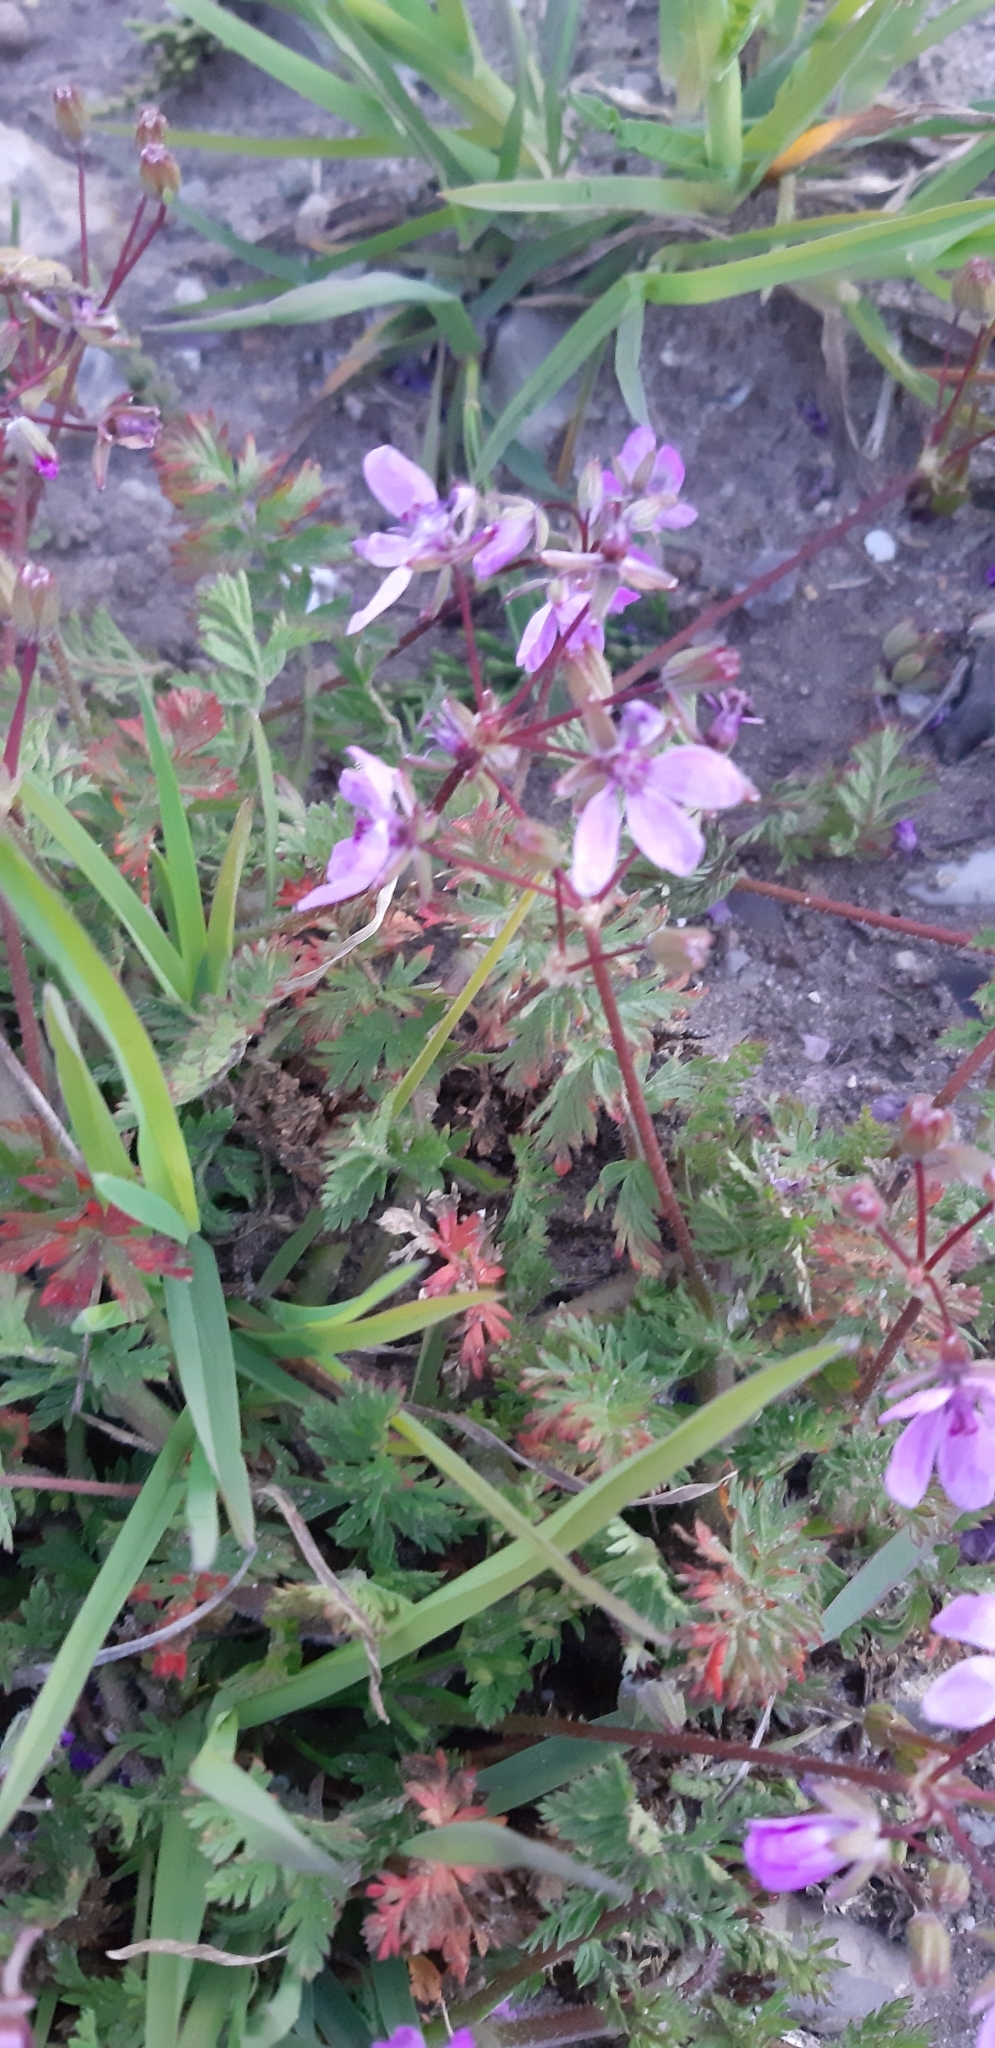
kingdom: Plantae
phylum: Tracheophyta
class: Magnoliopsida
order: Geraniales
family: Geraniaceae
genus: Erodium
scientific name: Erodium cicutarium
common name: Common stork's-bill
